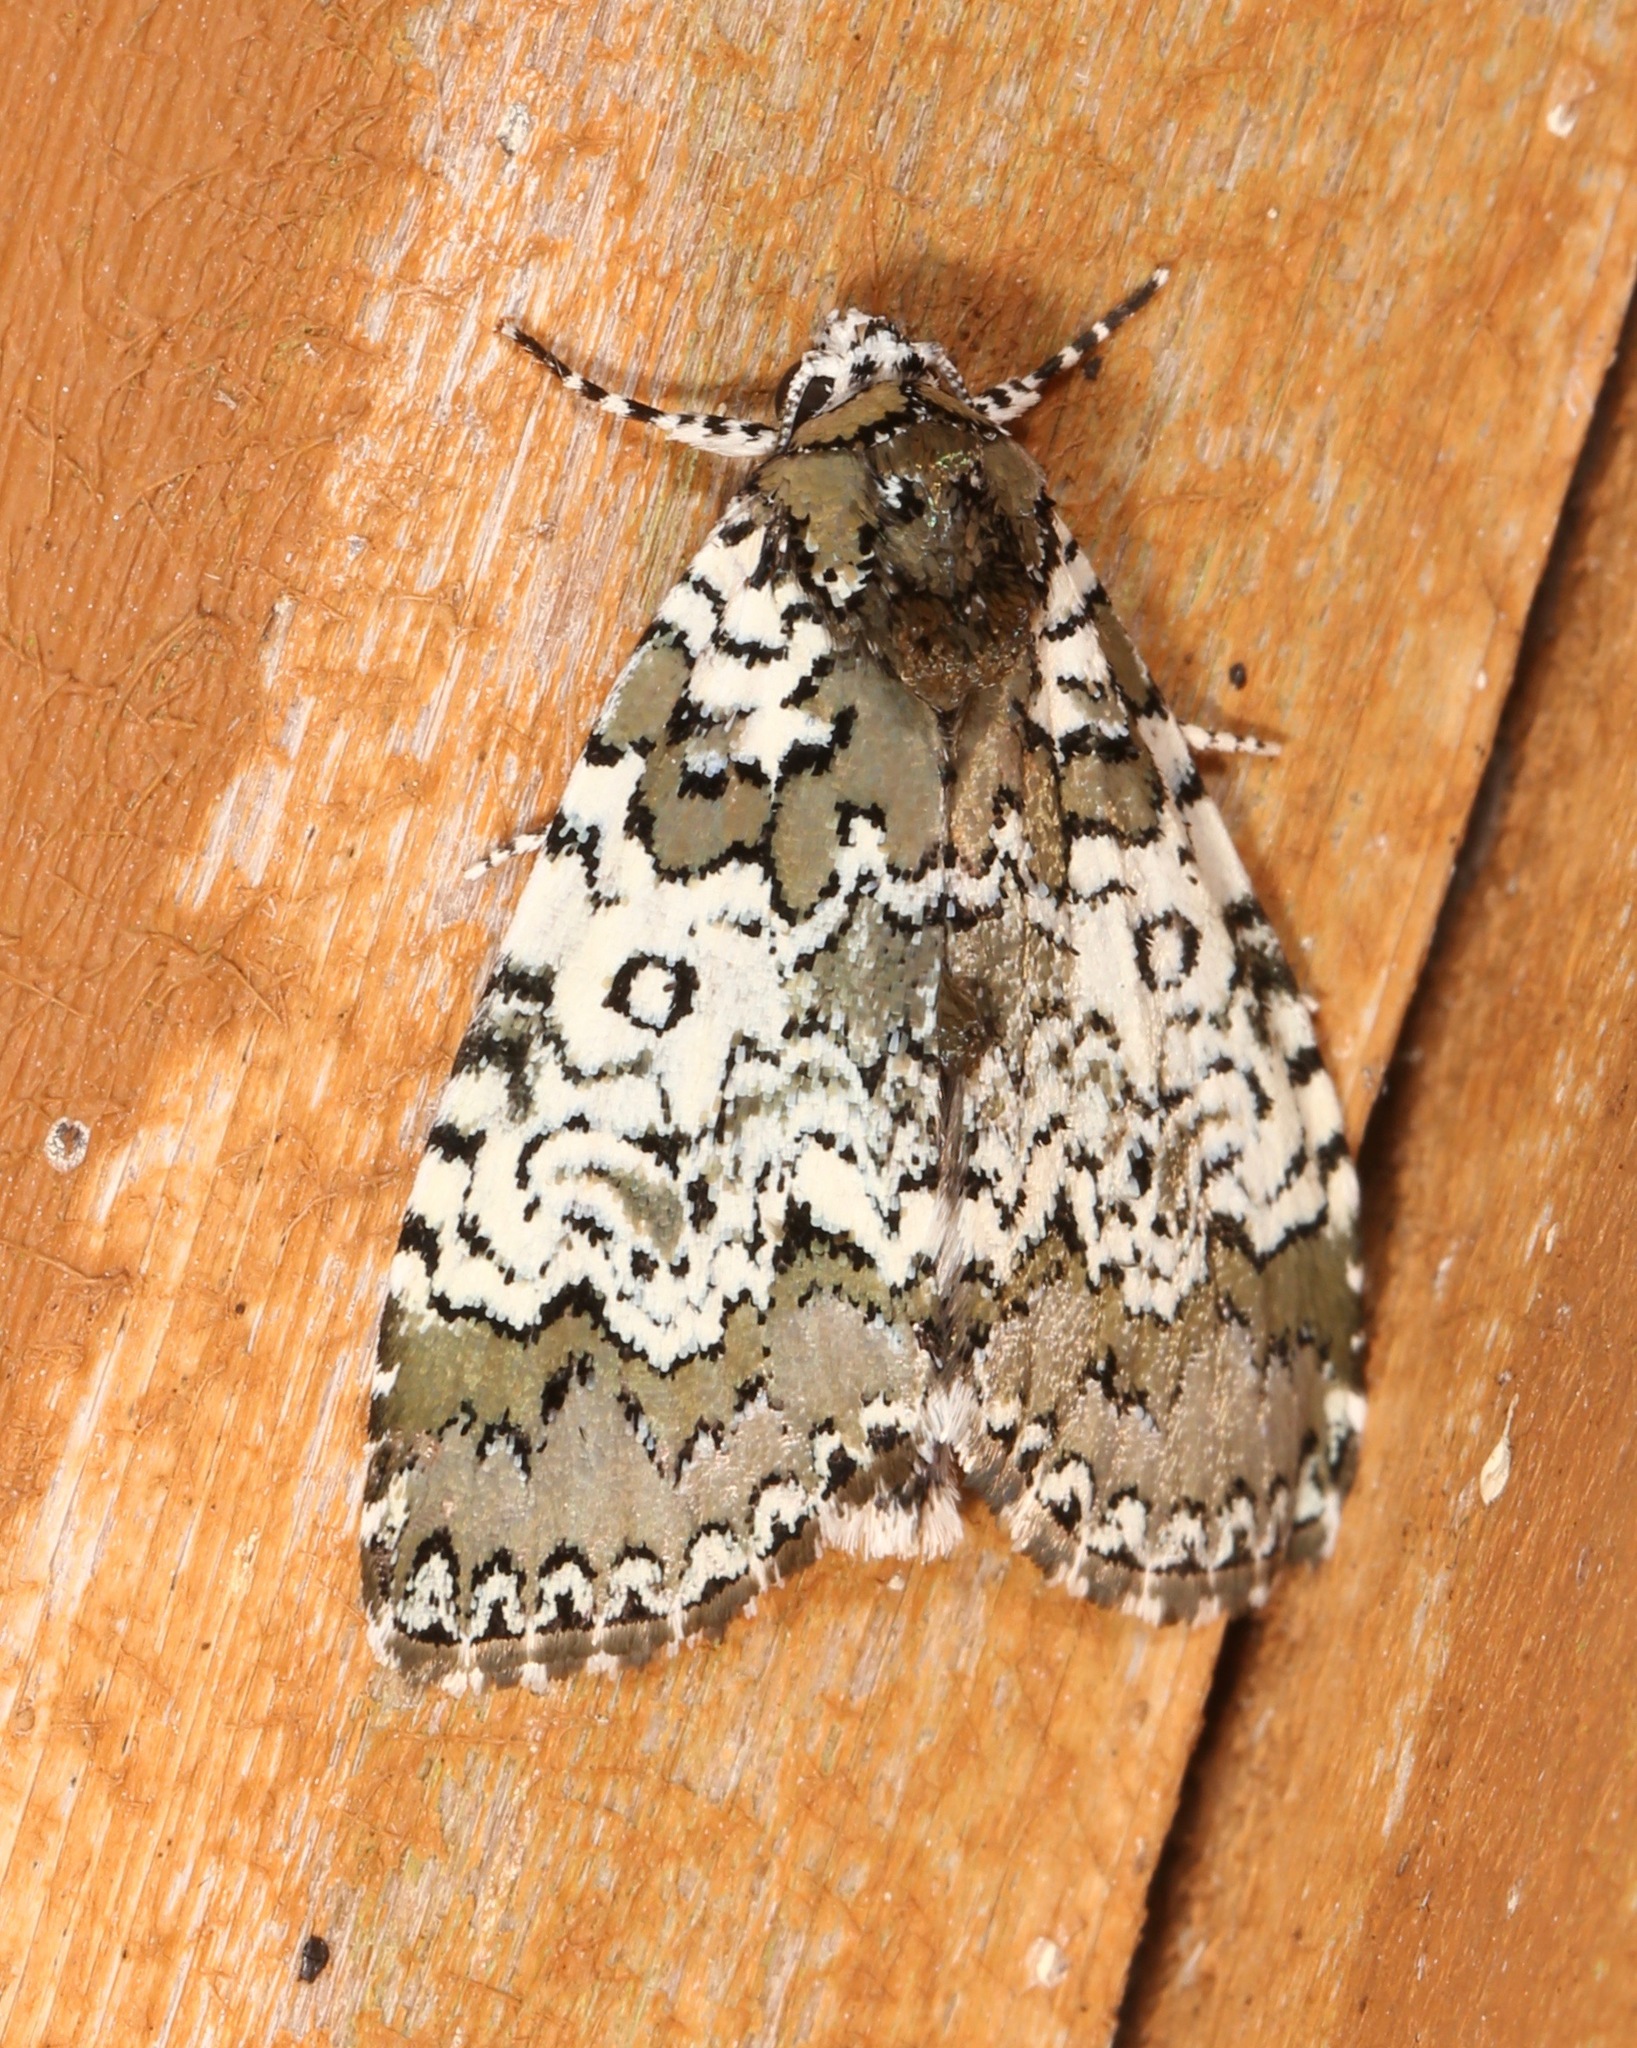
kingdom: Animalia
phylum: Arthropoda
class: Insecta
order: Lepidoptera
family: Noctuidae
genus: Cerma
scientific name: Cerma cora
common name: Bird dropping moth
